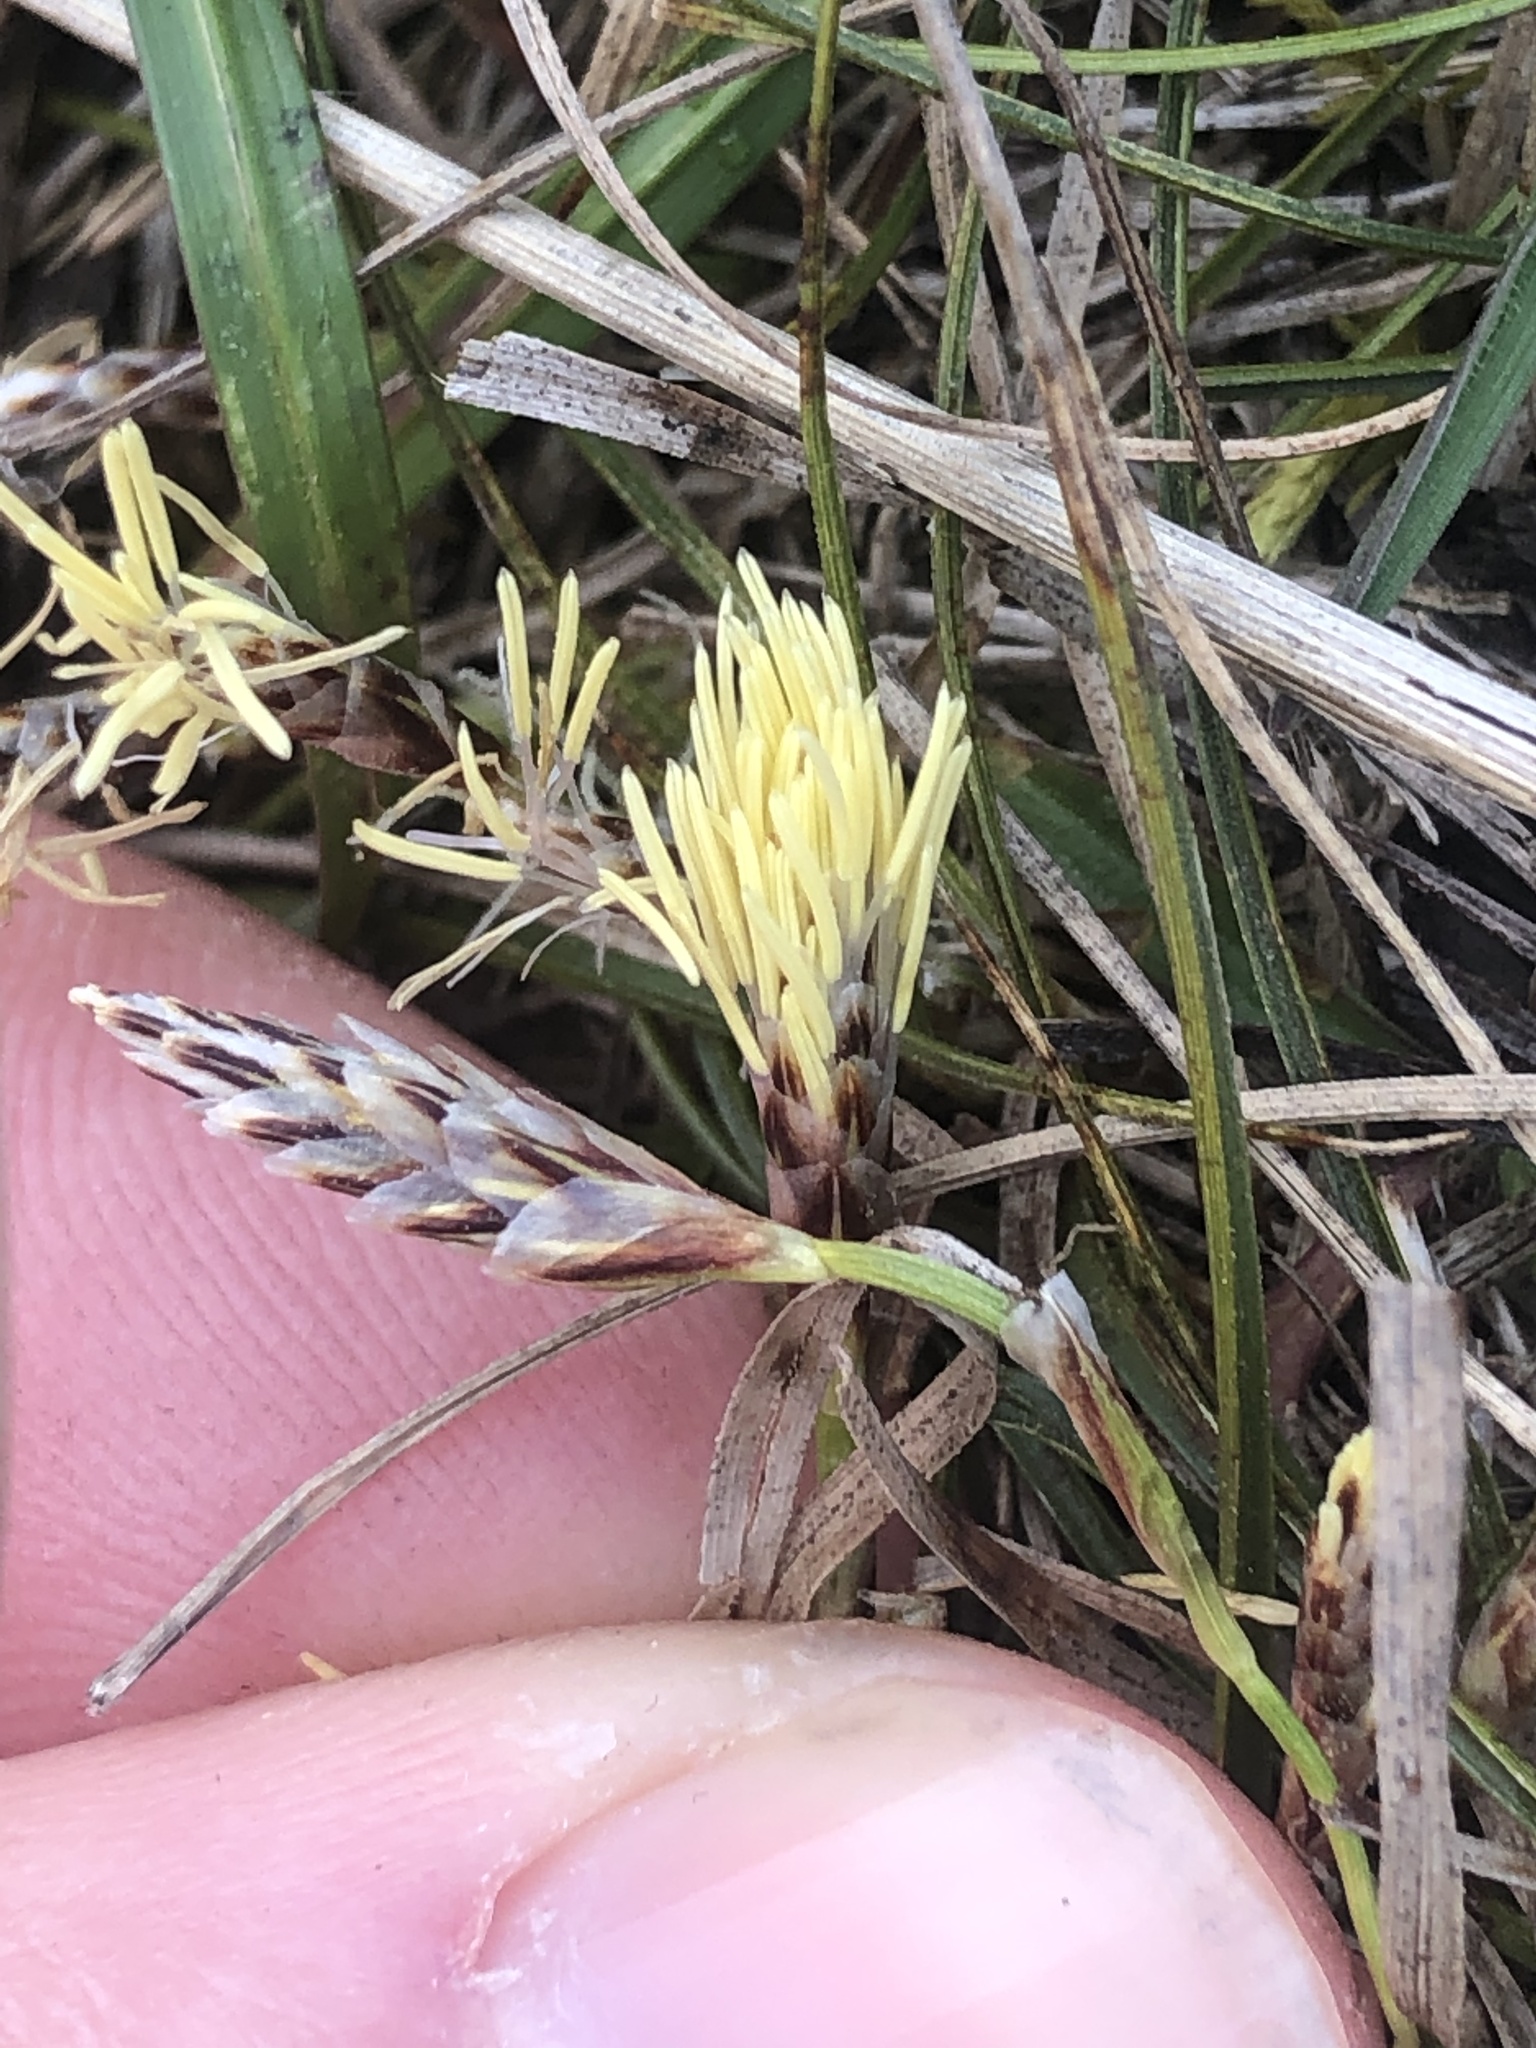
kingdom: Plantae
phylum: Tracheophyta
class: Liliopsida
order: Poales
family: Cyperaceae
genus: Carex
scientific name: Carex humilis
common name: Dwarf sedge
